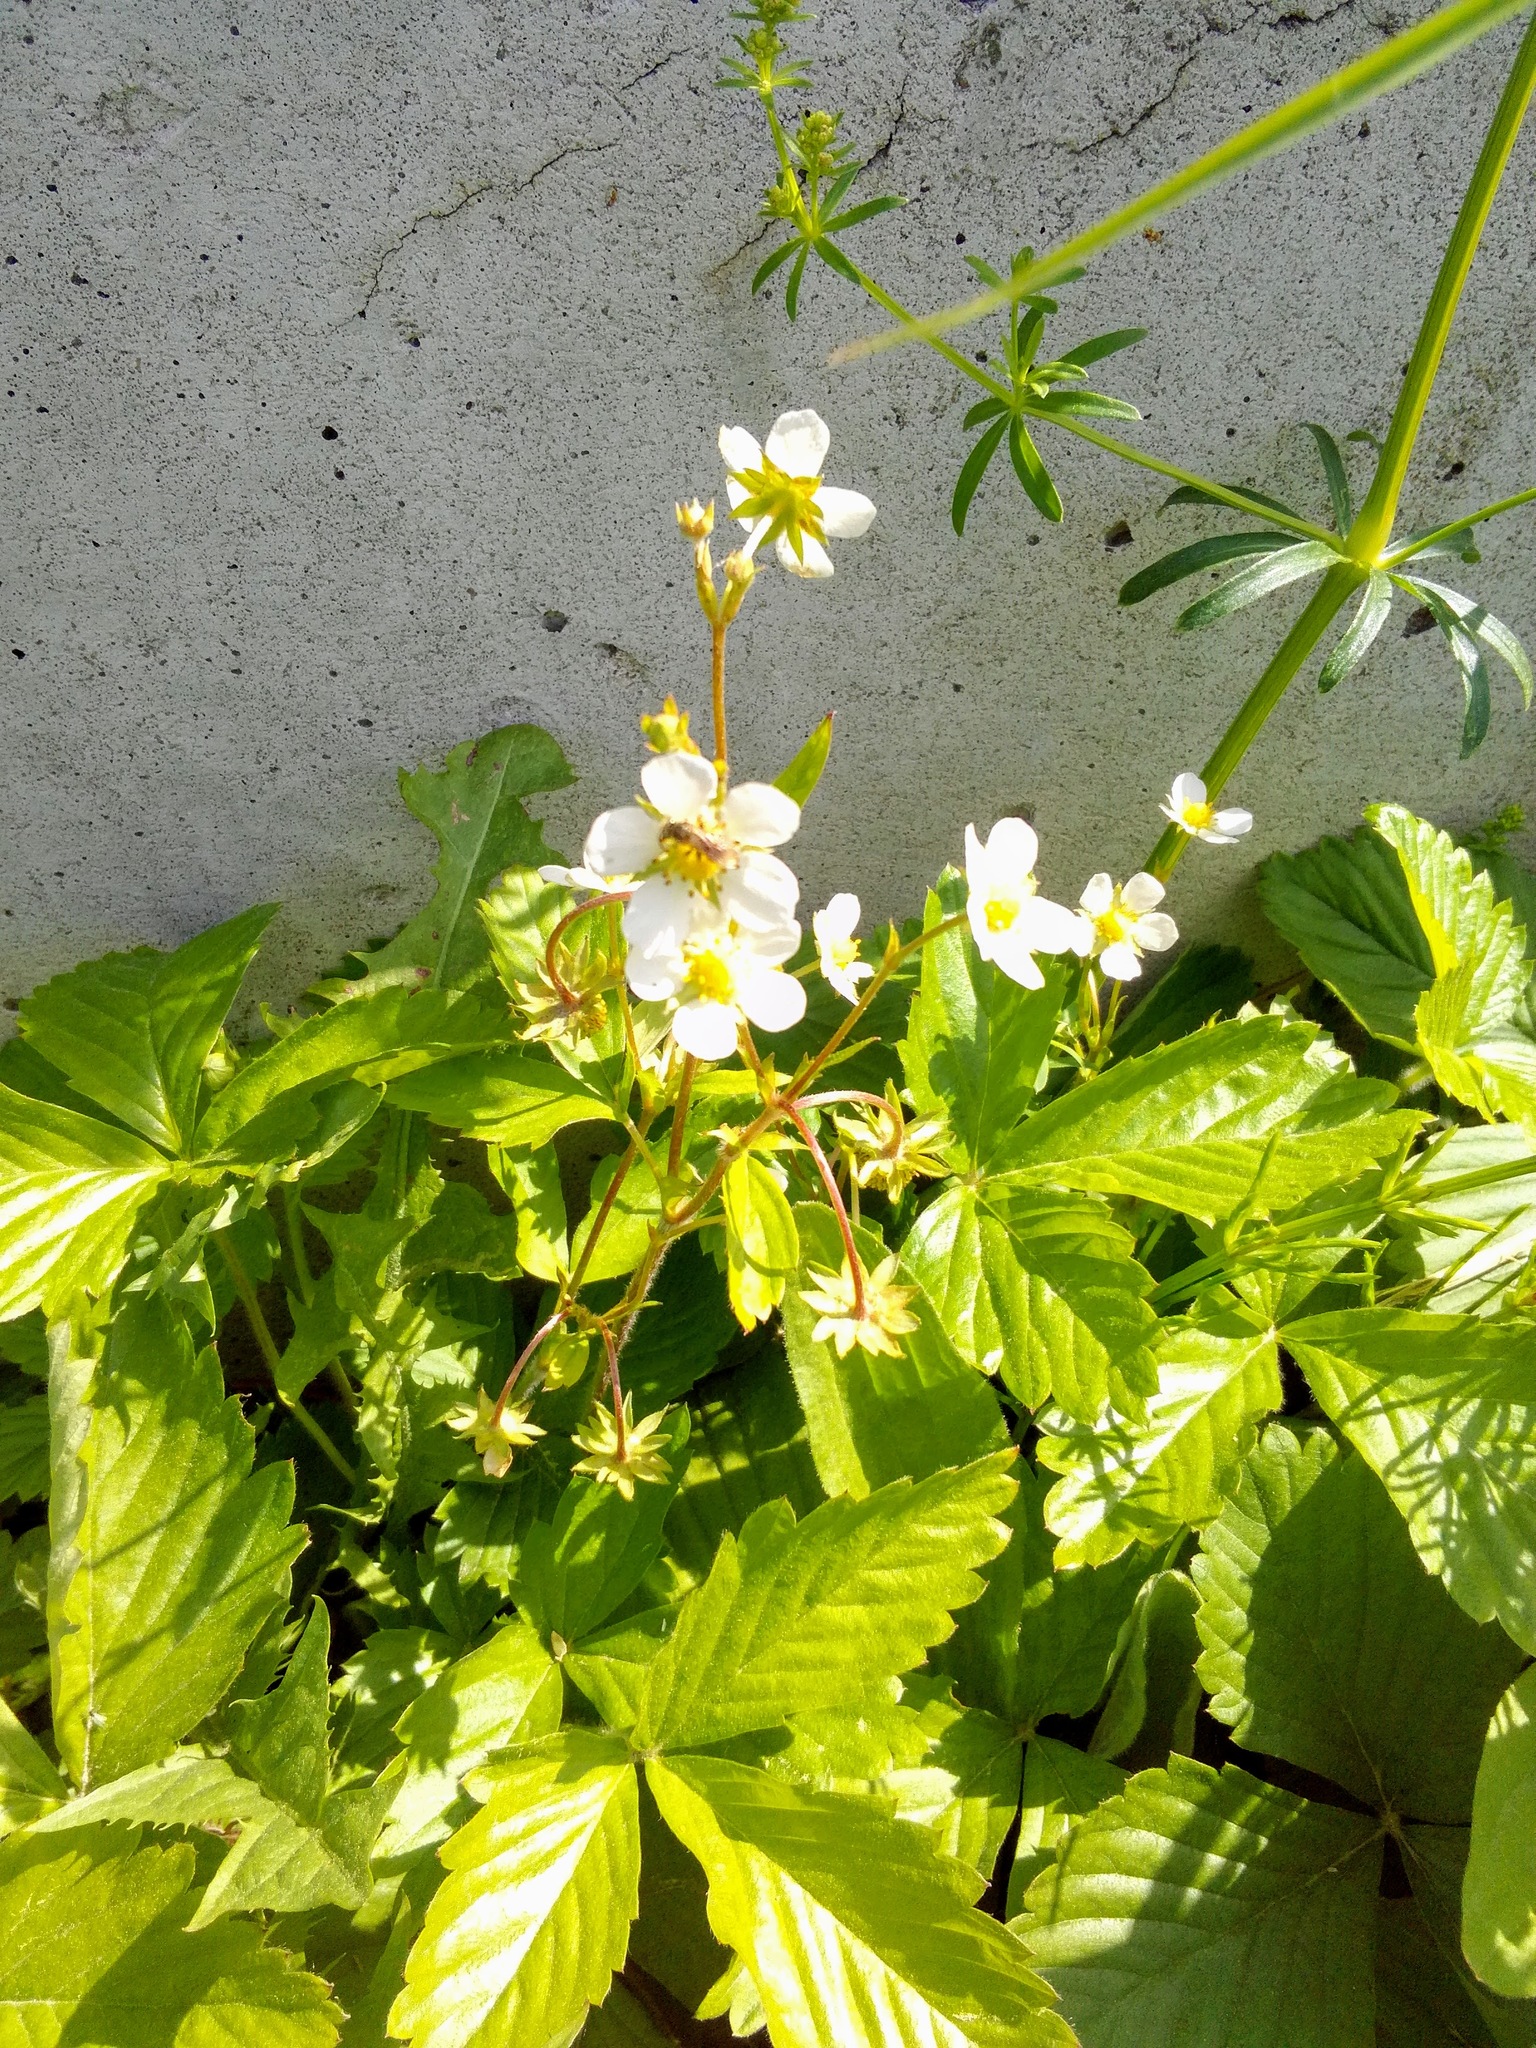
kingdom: Plantae
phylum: Tracheophyta
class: Magnoliopsida
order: Rosales
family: Rosaceae
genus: Fragaria
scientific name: Fragaria vesca
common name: Wild strawberry
